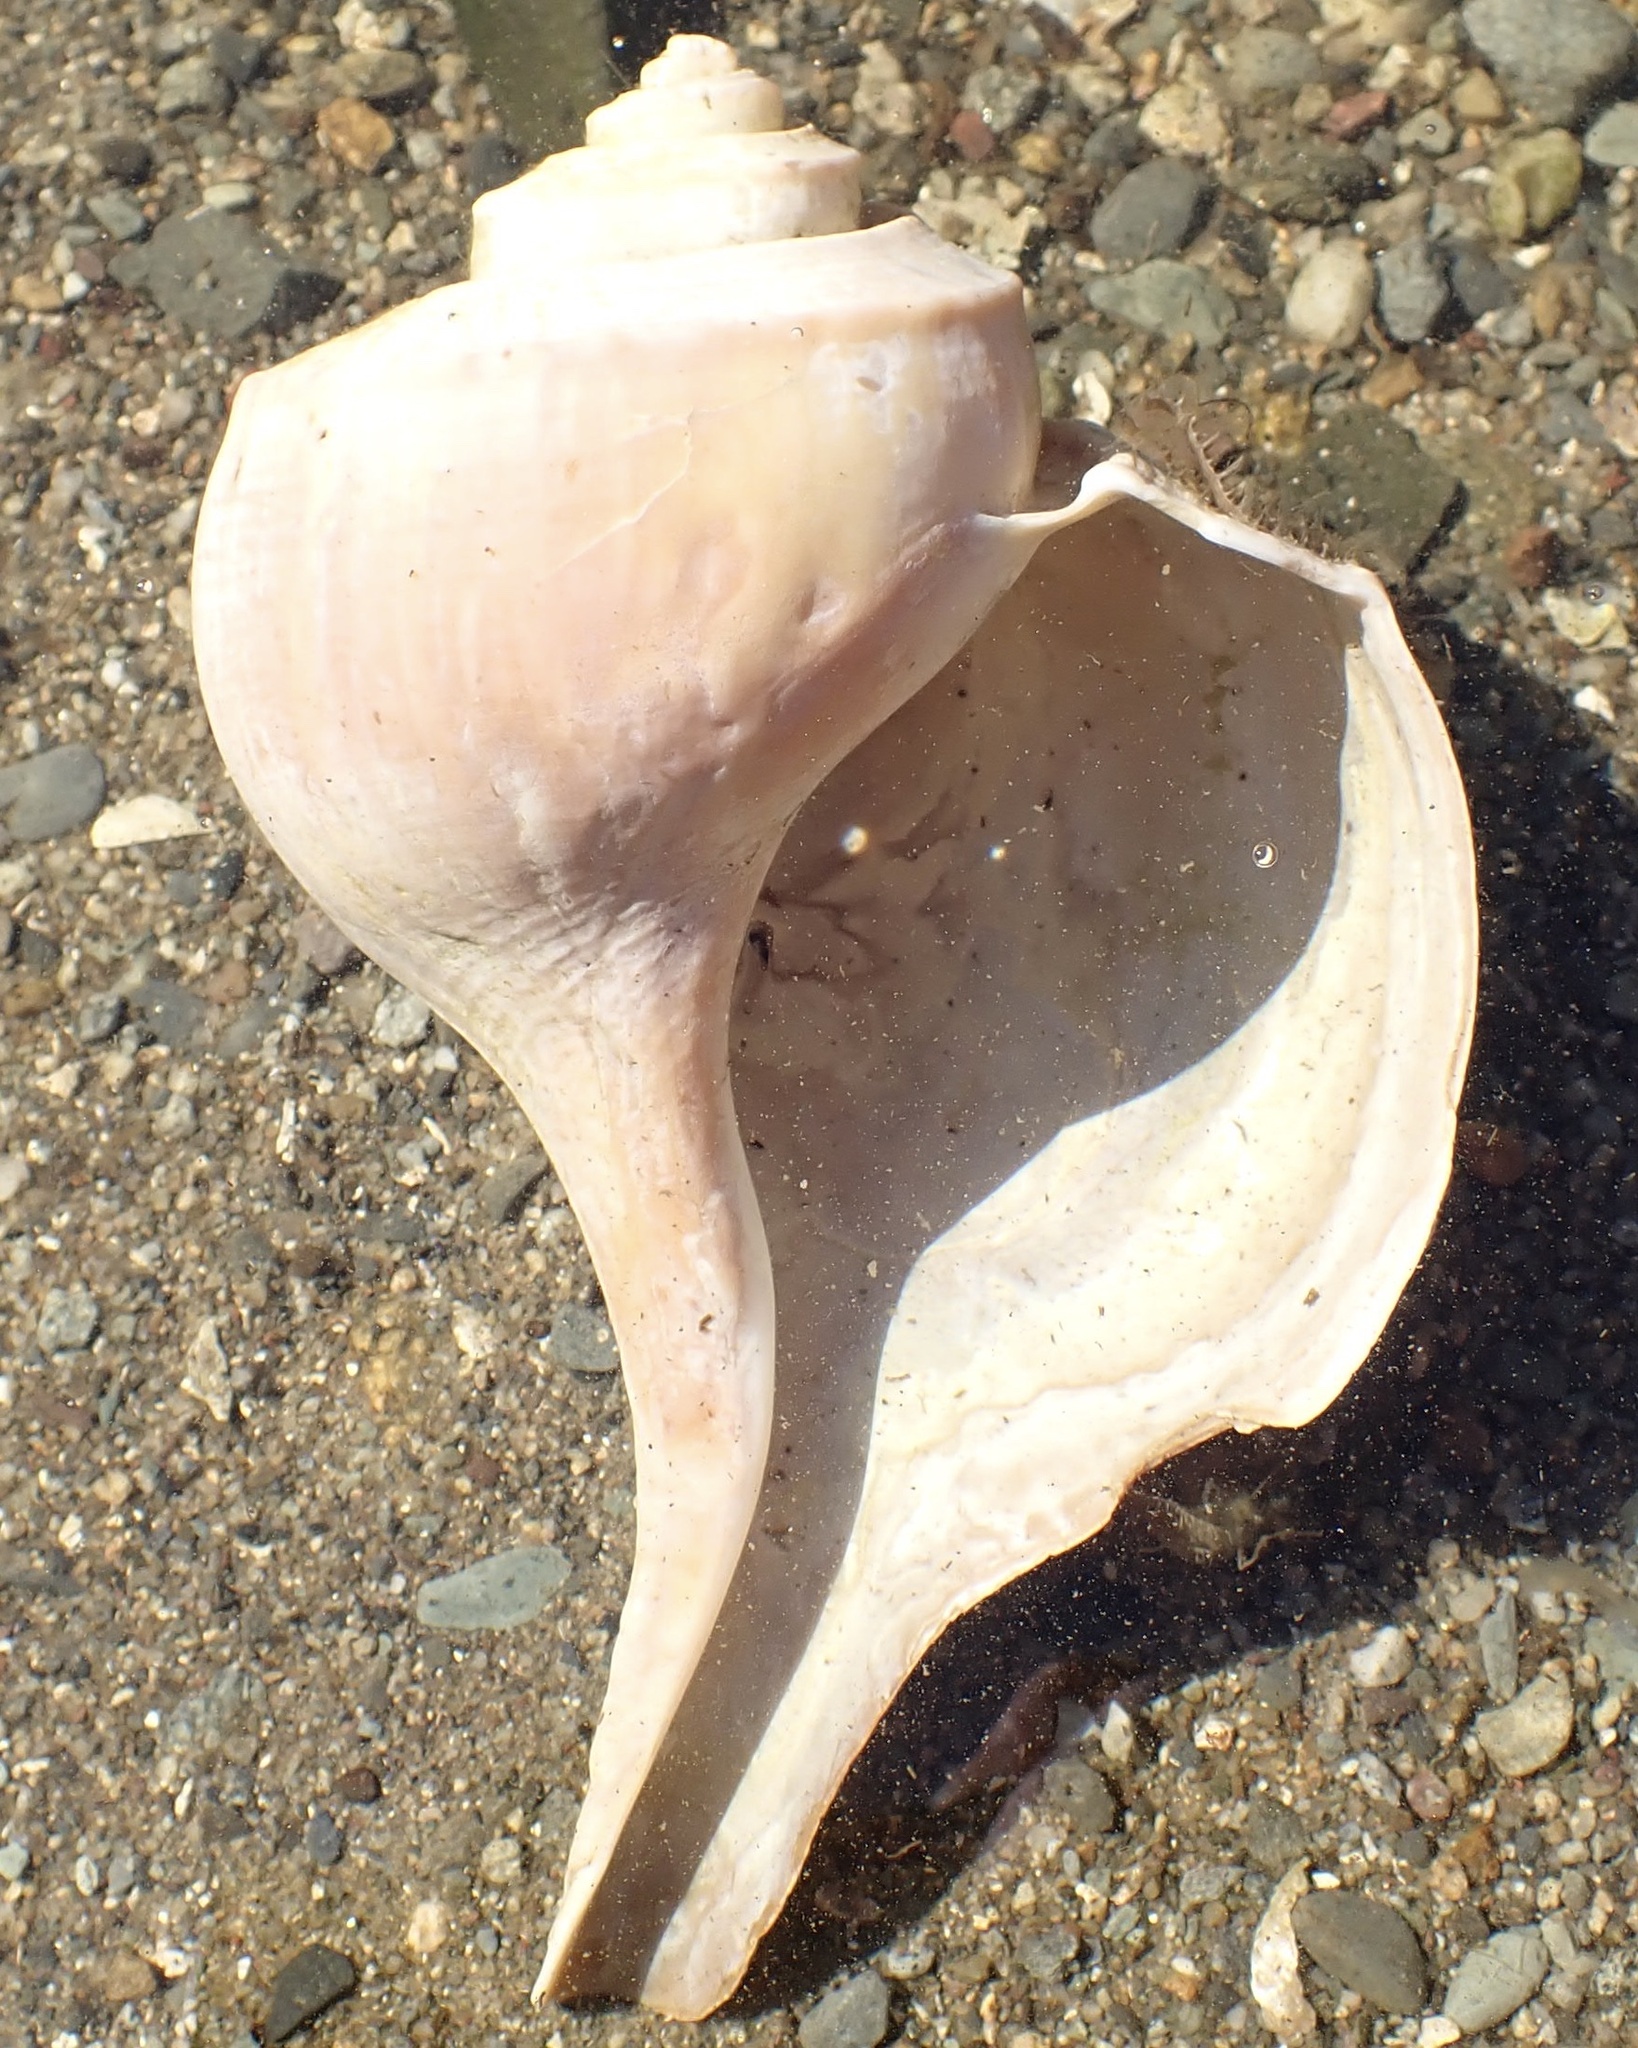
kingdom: Animalia
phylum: Mollusca
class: Gastropoda
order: Neogastropoda
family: Busyconidae
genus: Busycotypus
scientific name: Busycotypus canaliculatus
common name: Channeled whelk
